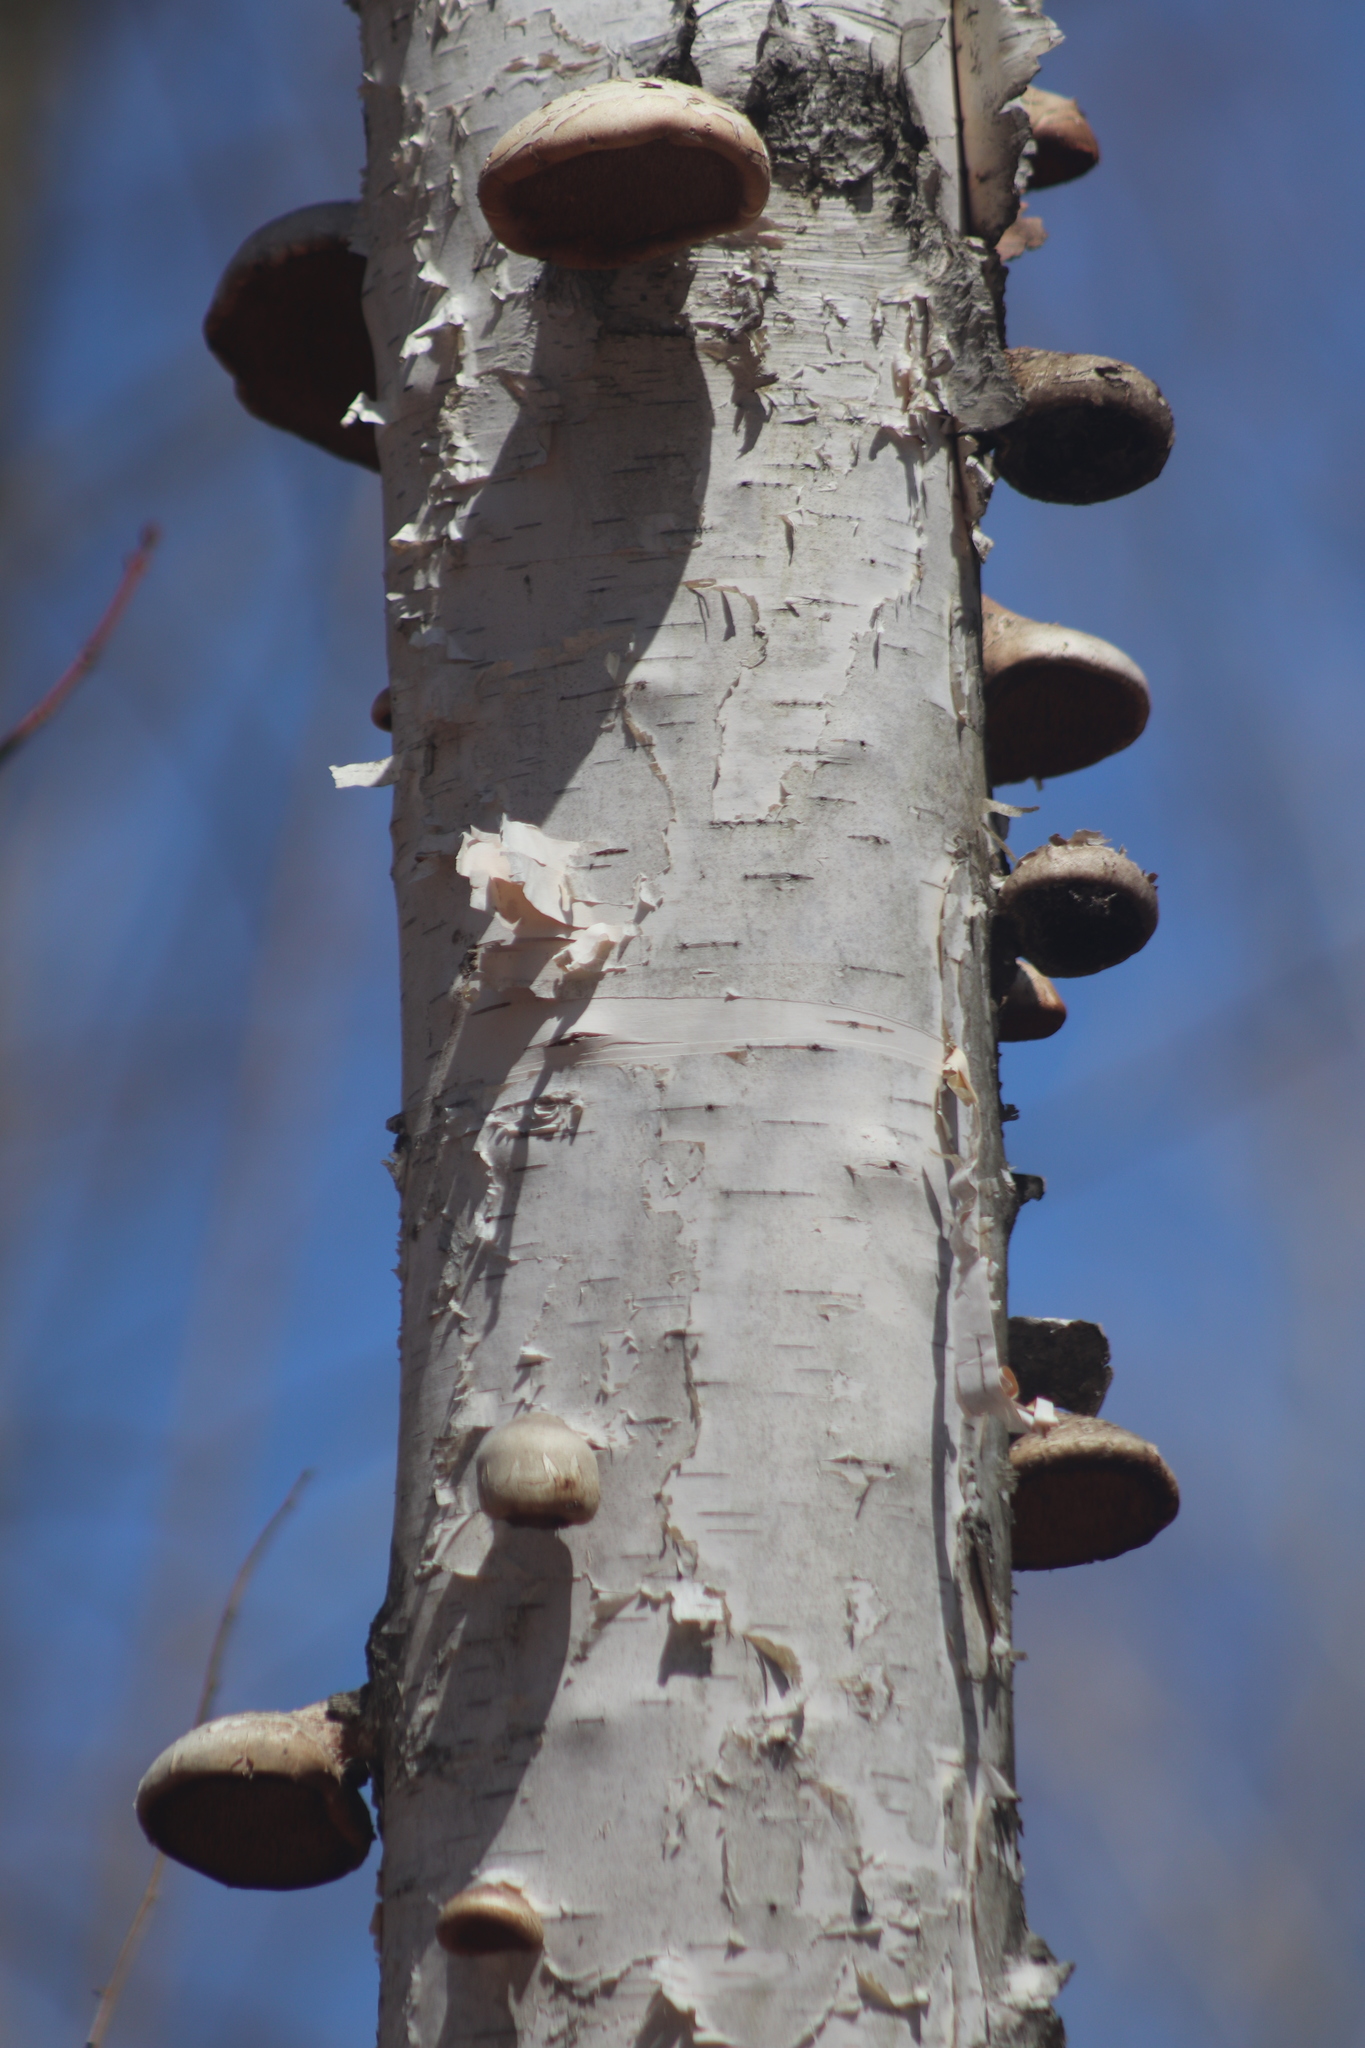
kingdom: Fungi
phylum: Basidiomycota
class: Agaricomycetes
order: Polyporales
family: Fomitopsidaceae
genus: Fomitopsis
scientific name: Fomitopsis betulina
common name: Birch polypore
